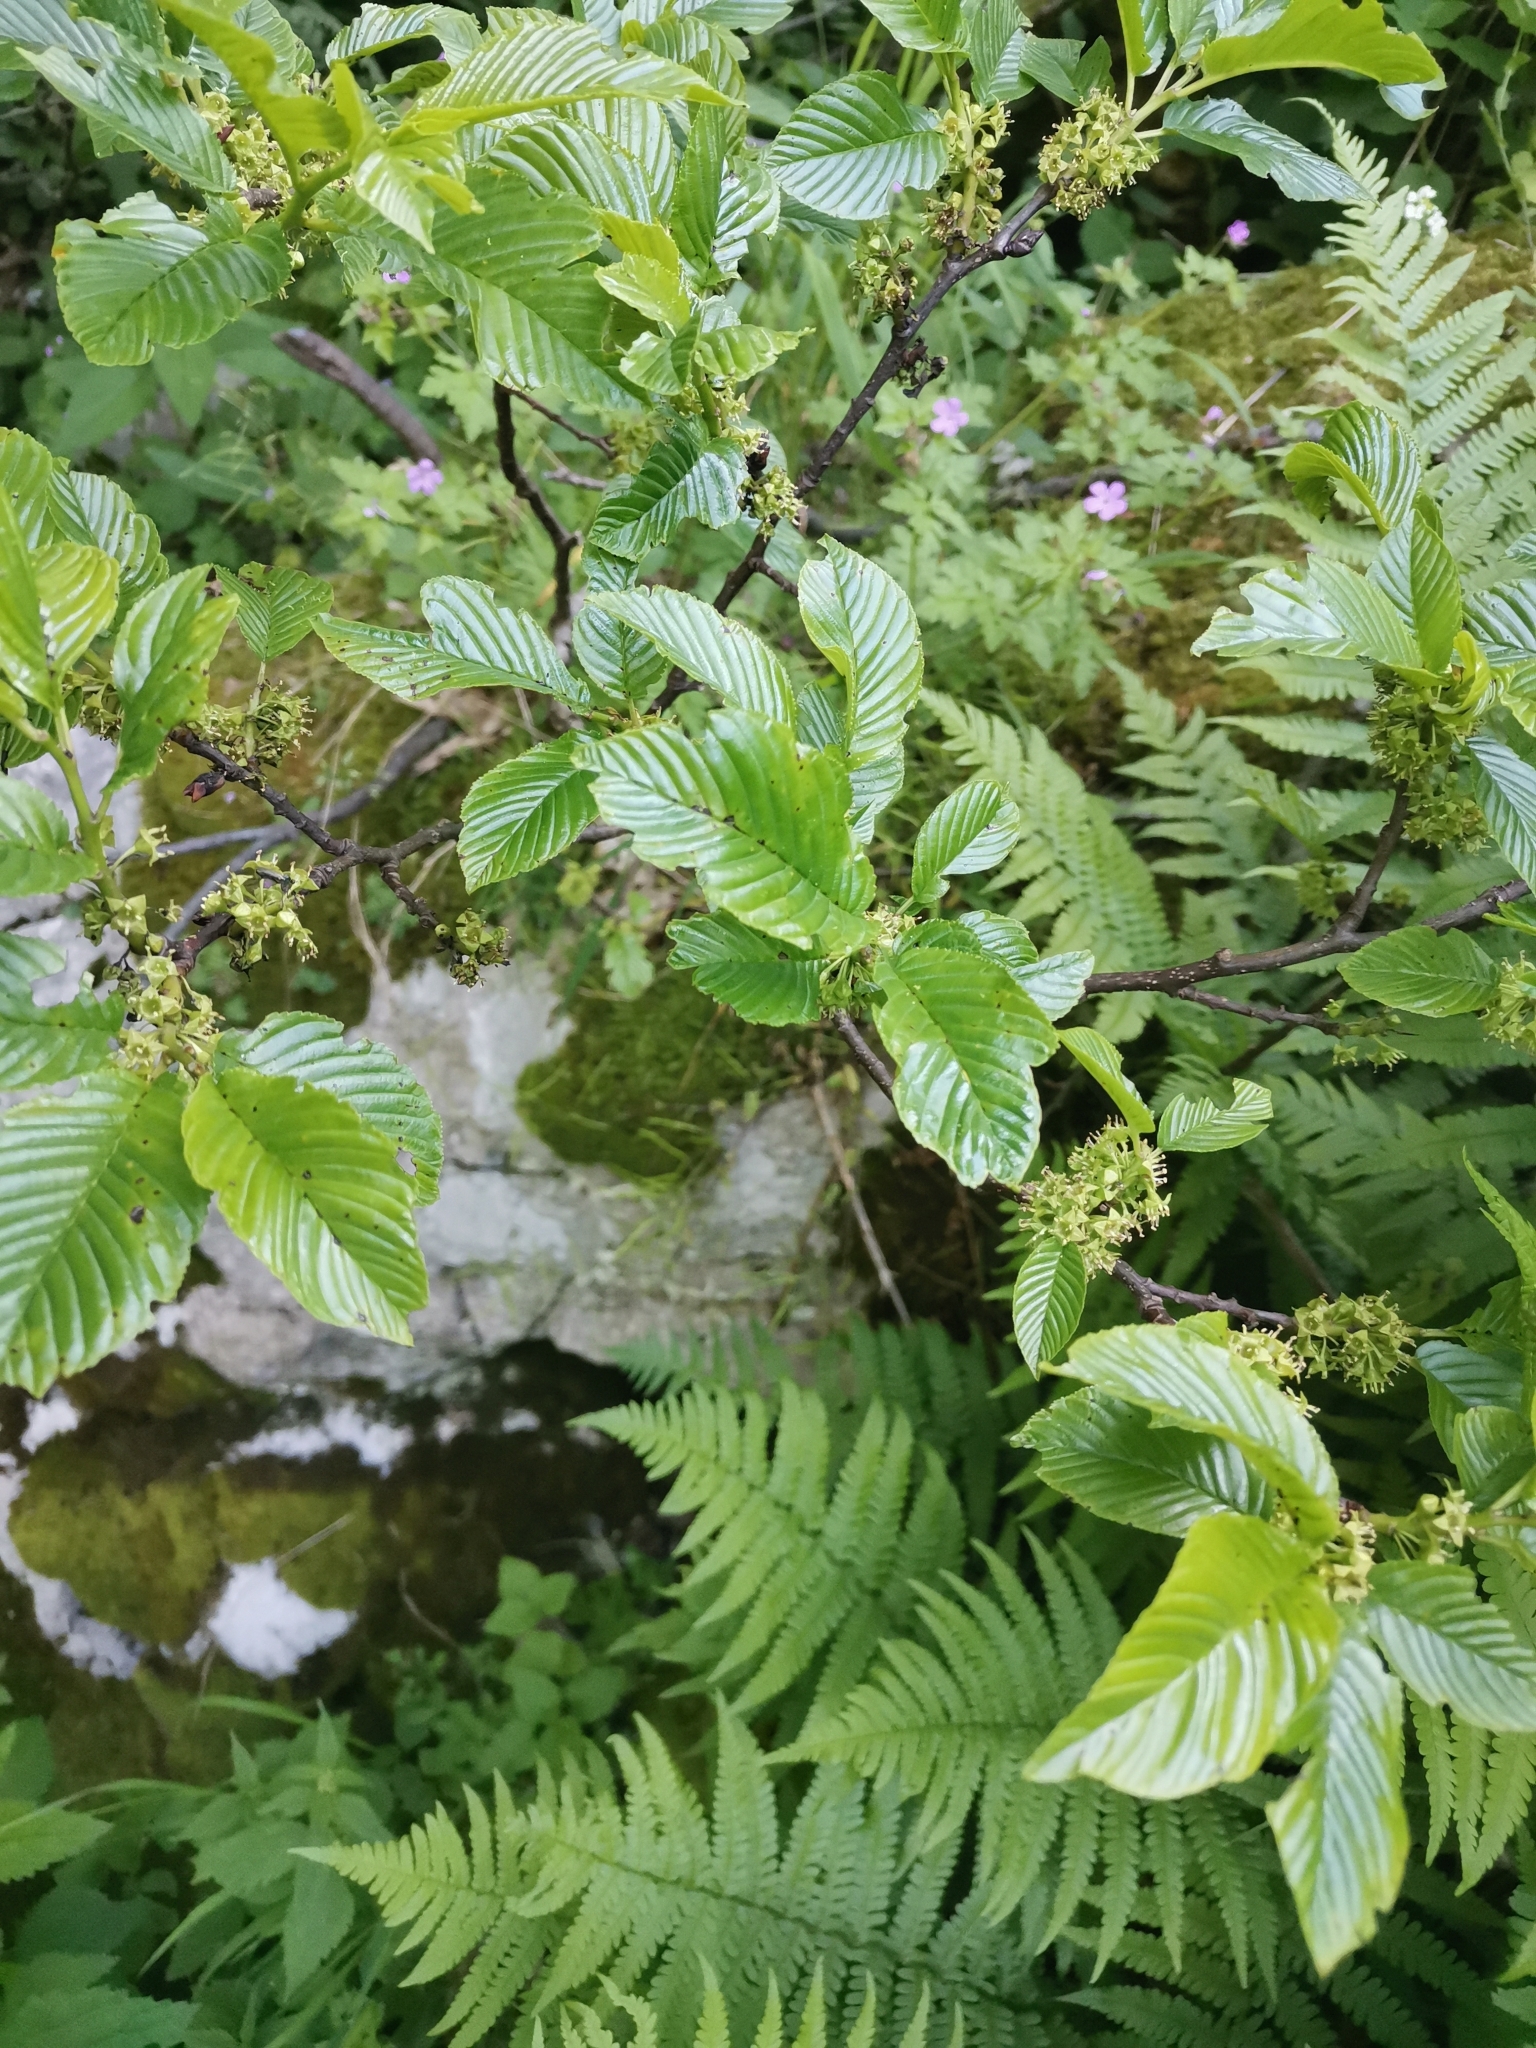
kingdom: Plantae
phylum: Tracheophyta
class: Magnoliopsida
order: Rosales
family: Rhamnaceae
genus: Atadinus
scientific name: Atadinus fallax
